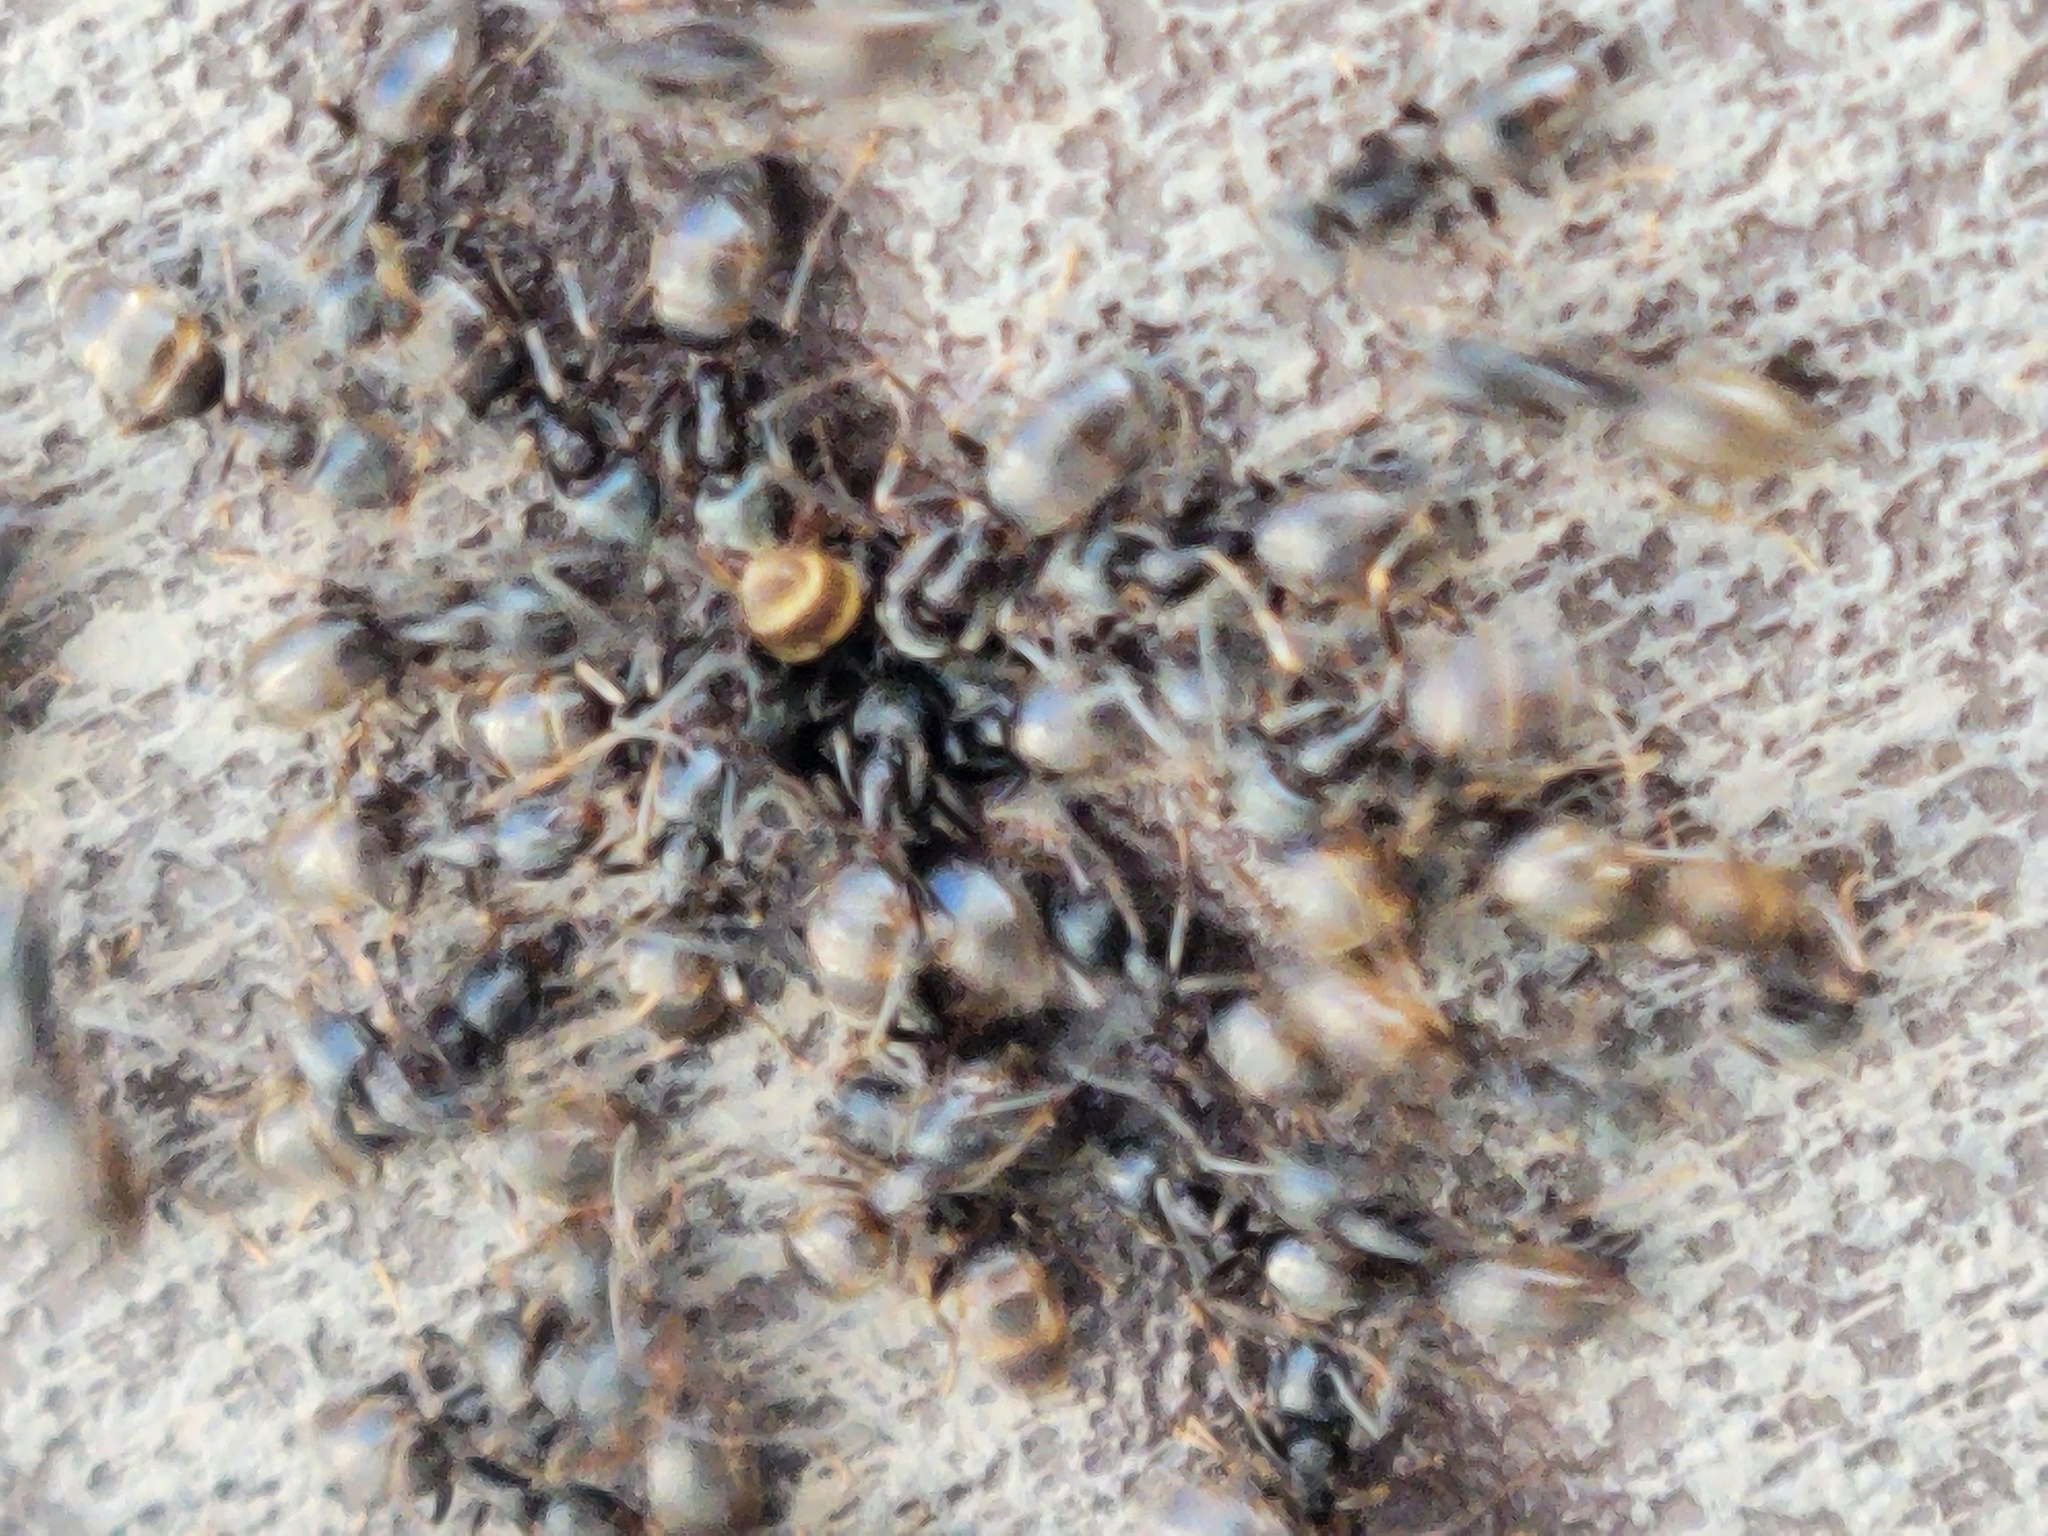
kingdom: Animalia
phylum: Arthropoda
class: Insecta
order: Hymenoptera
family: Formicidae
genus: Tapinoma
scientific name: Tapinoma sessile
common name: Odorous house ant
